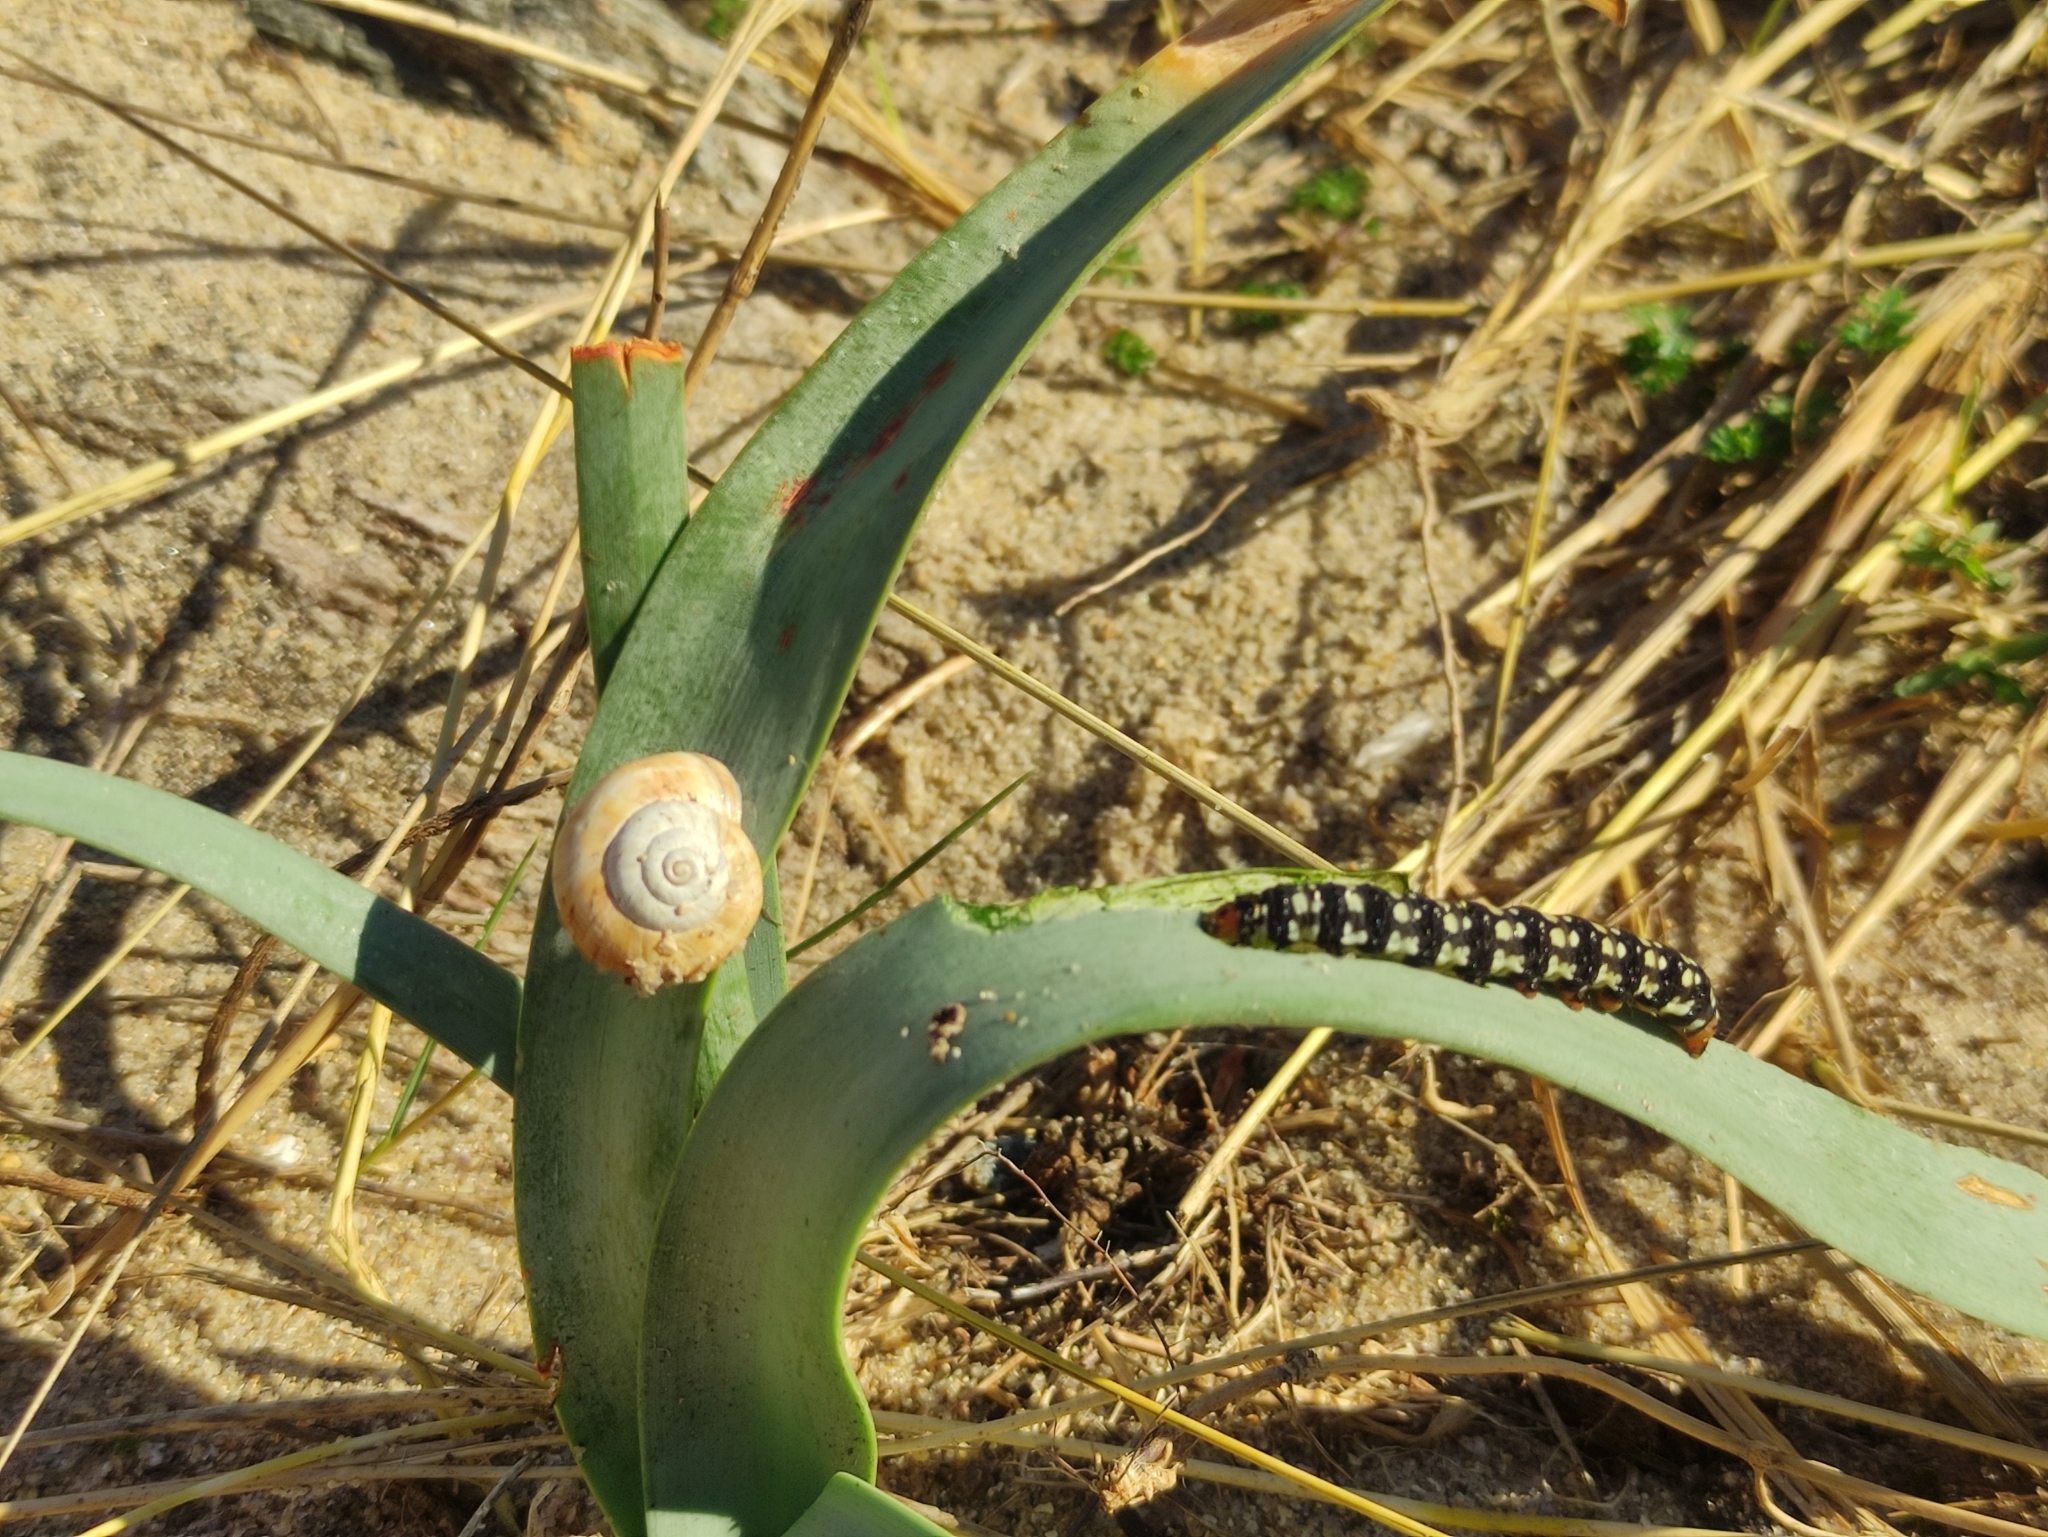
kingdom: Animalia
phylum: Arthropoda
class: Insecta
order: Lepidoptera
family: Noctuidae
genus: Brithys
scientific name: Brithys crini
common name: Kew arches
